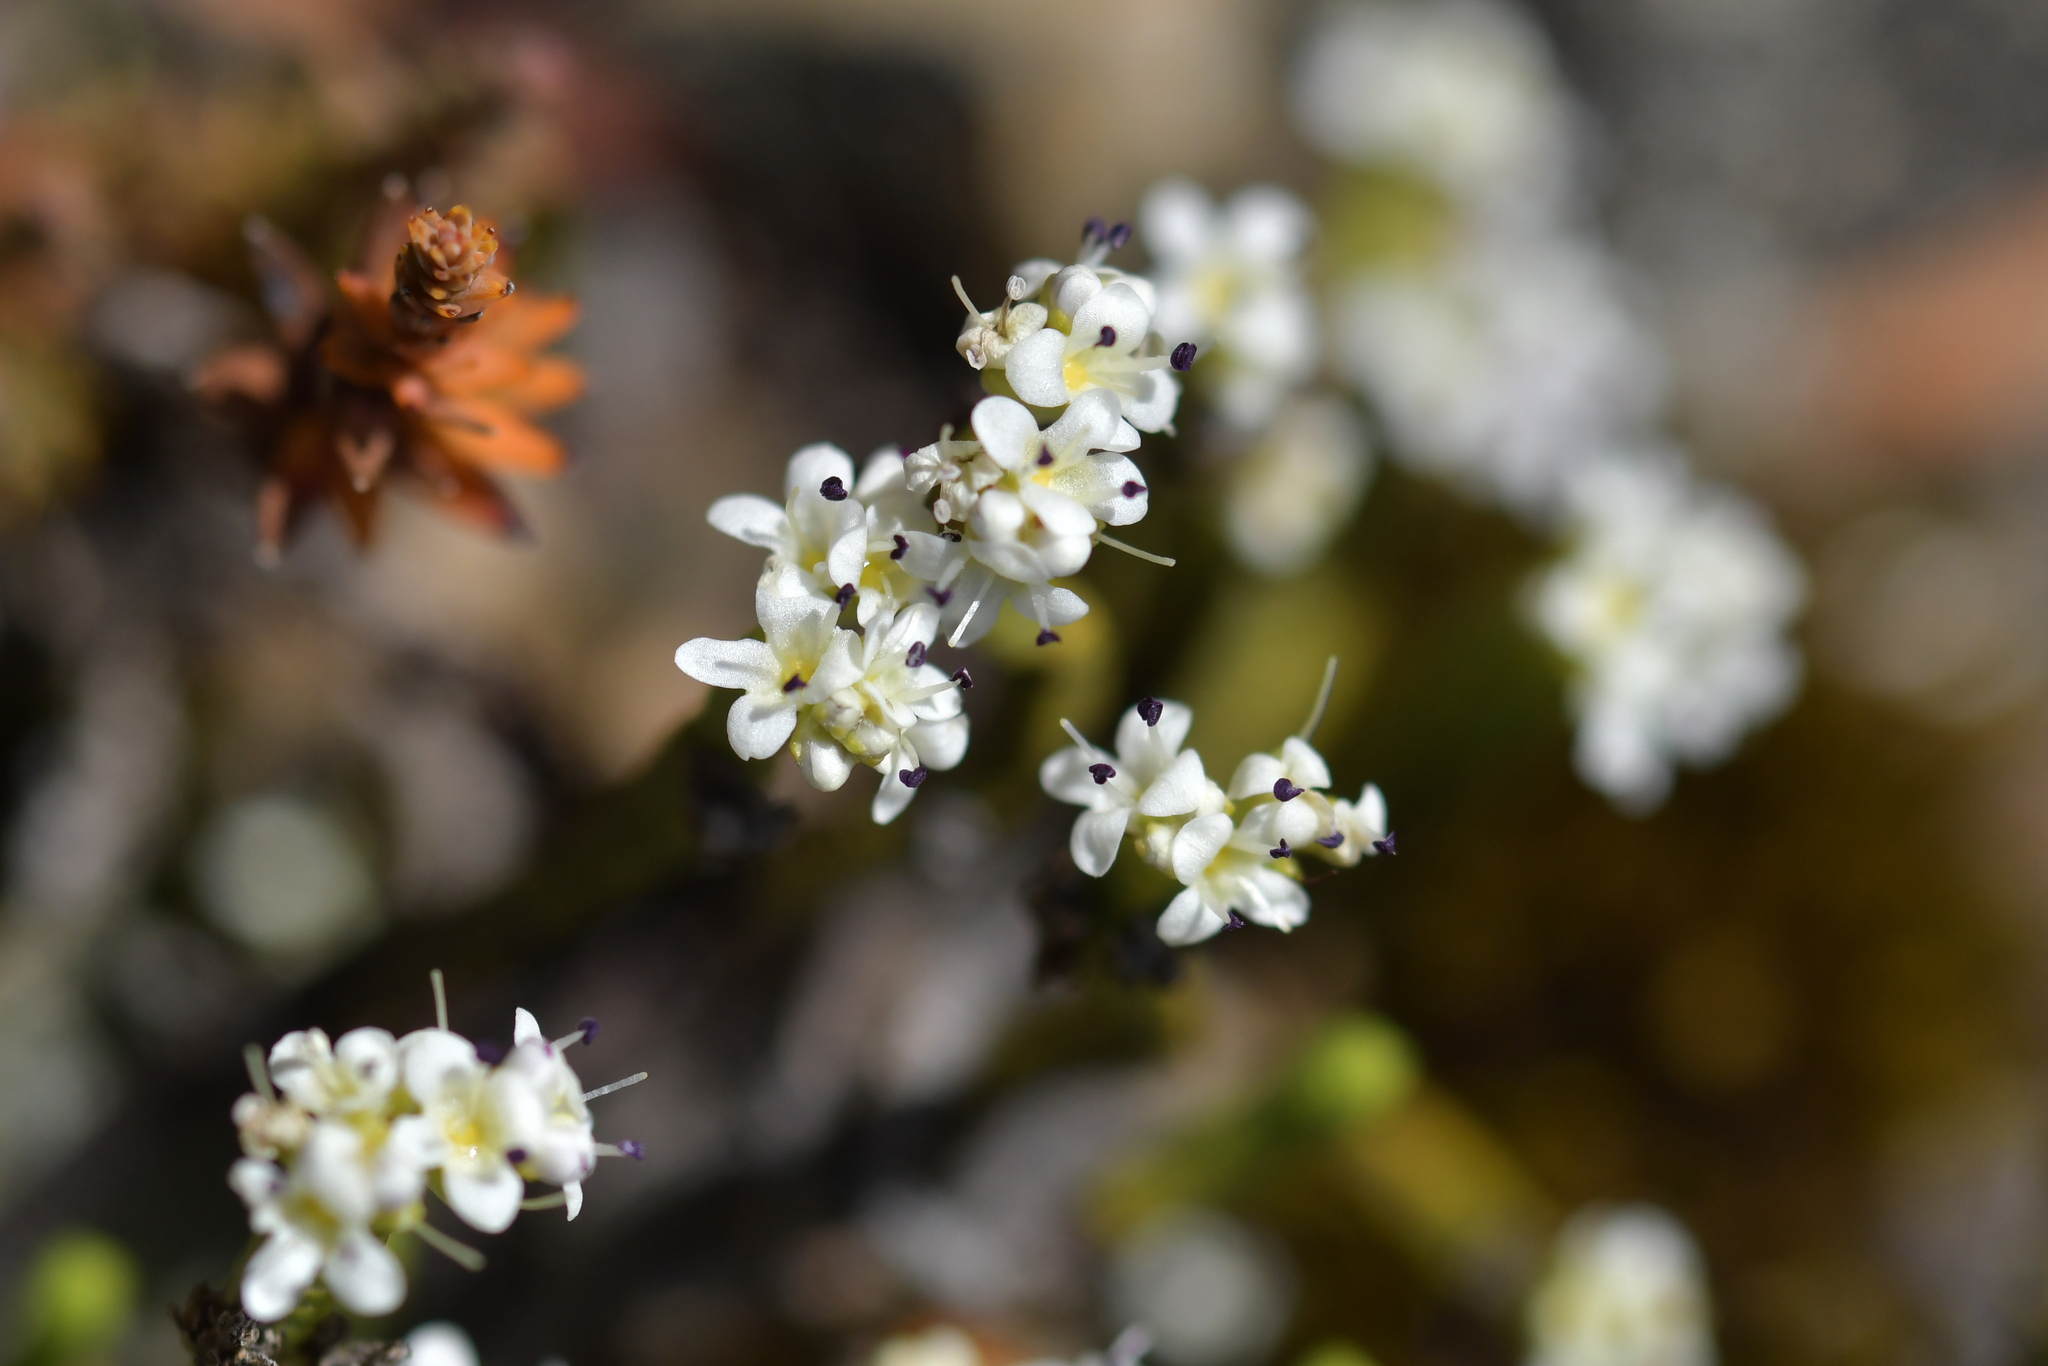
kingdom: Plantae
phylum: Tracheophyta
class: Magnoliopsida
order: Lamiales
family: Plantaginaceae
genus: Veronica
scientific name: Veronica quadrifaria
